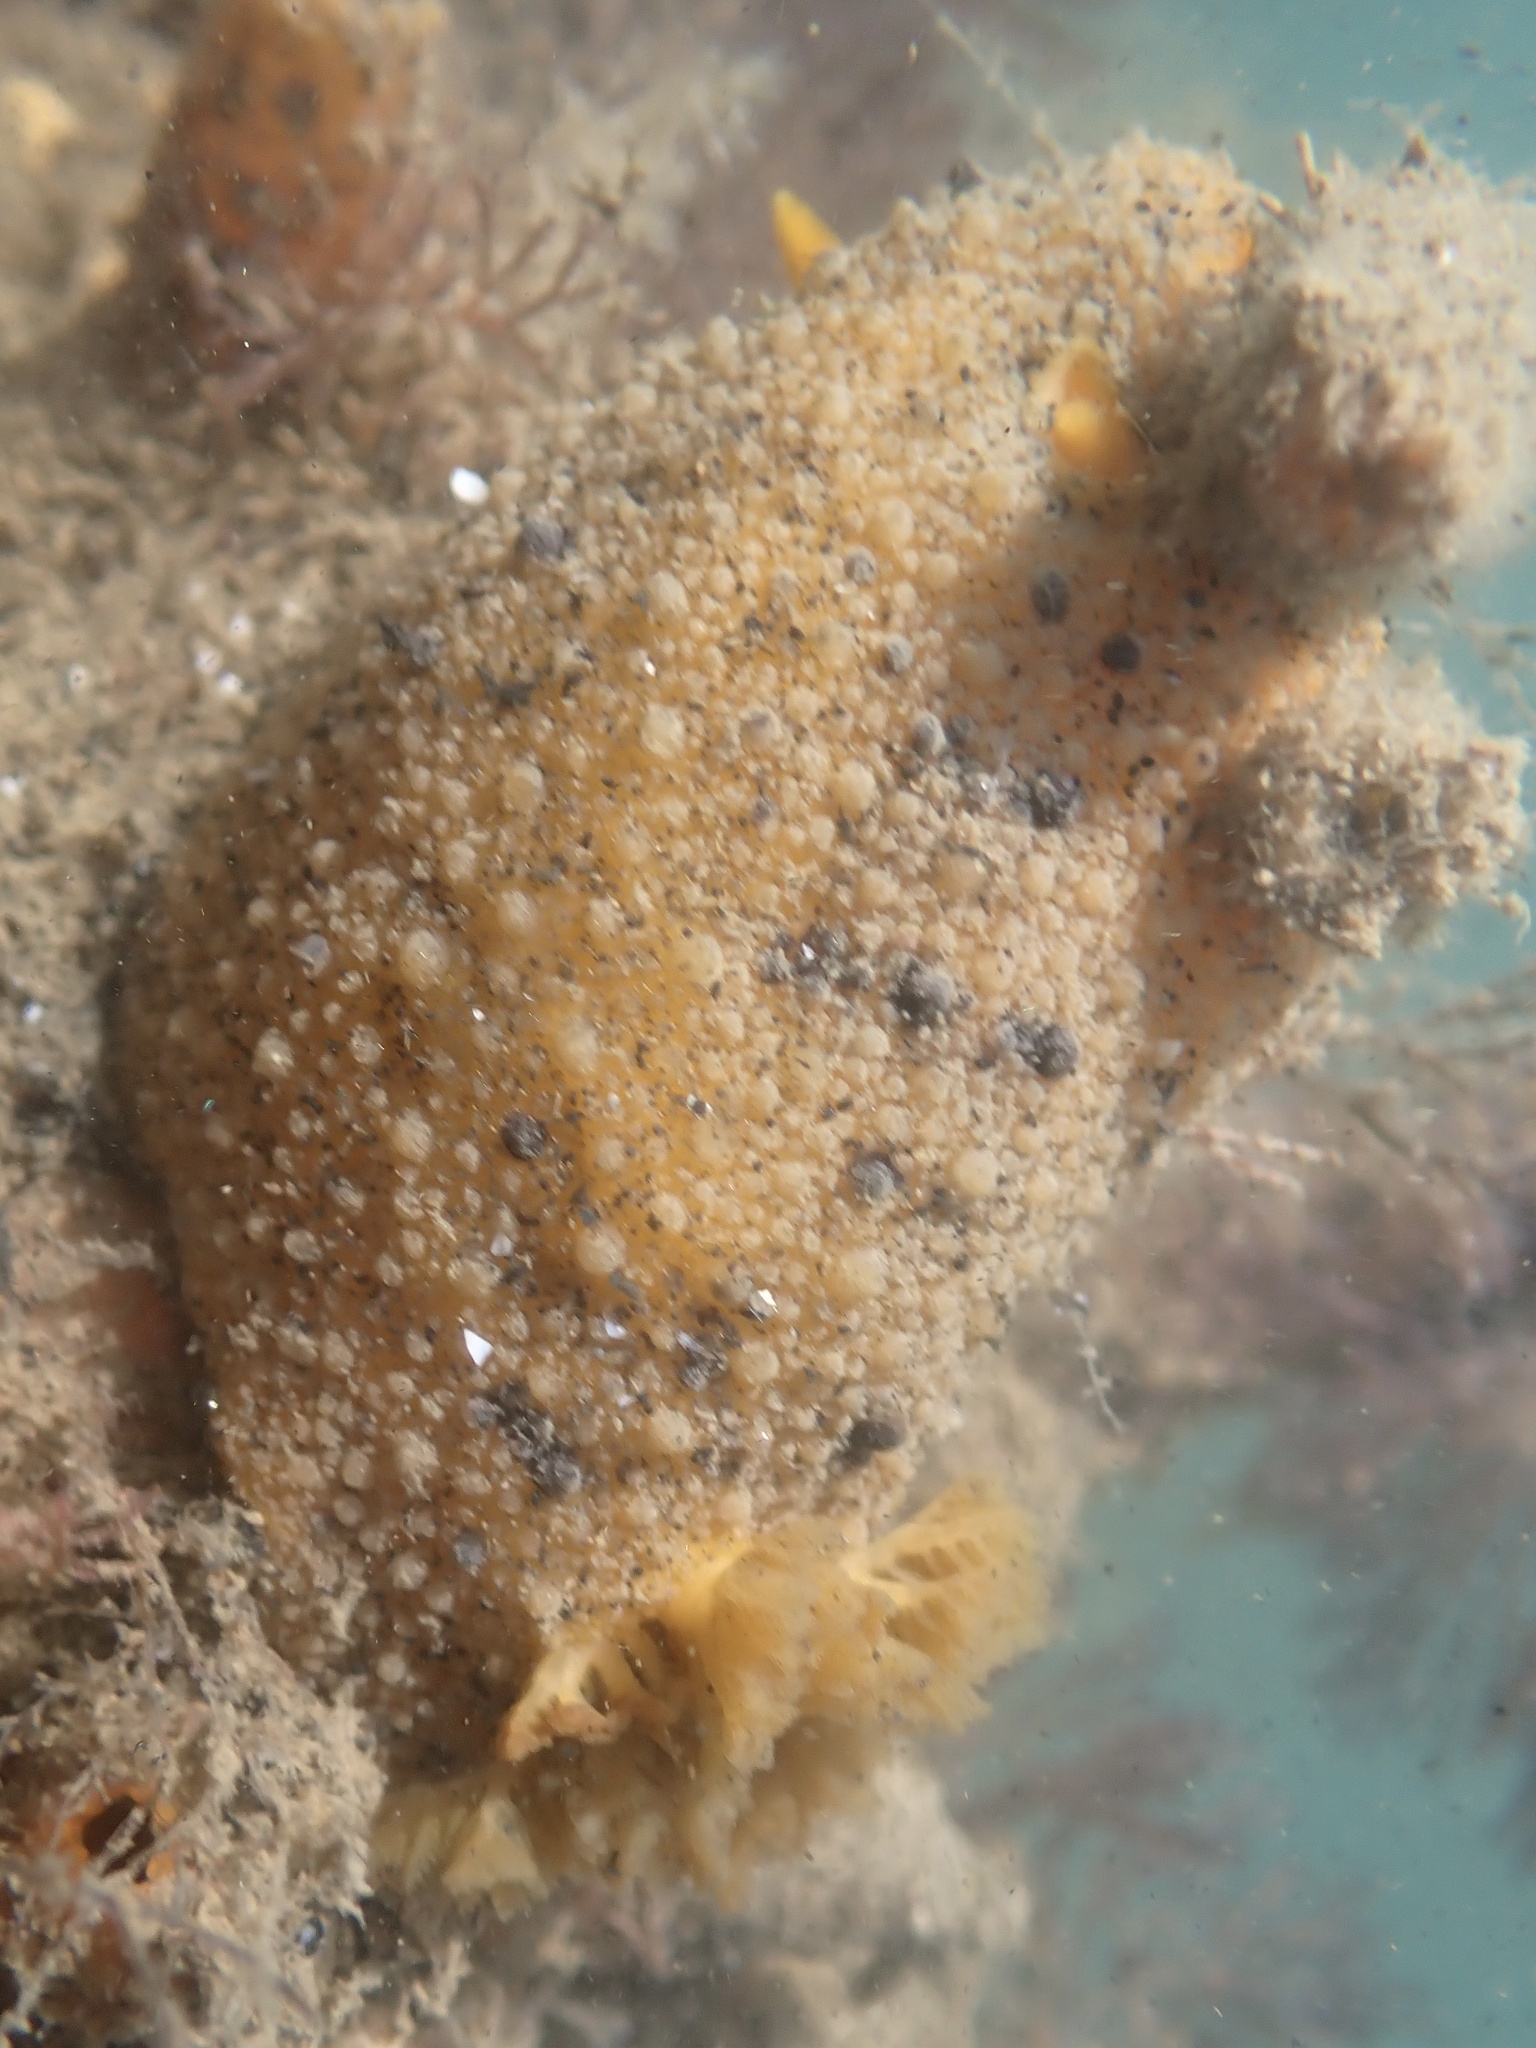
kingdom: Animalia
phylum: Mollusca
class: Gastropoda
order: Nudibranchia
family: Dorididae
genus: Doris
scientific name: Doris montereyensis
